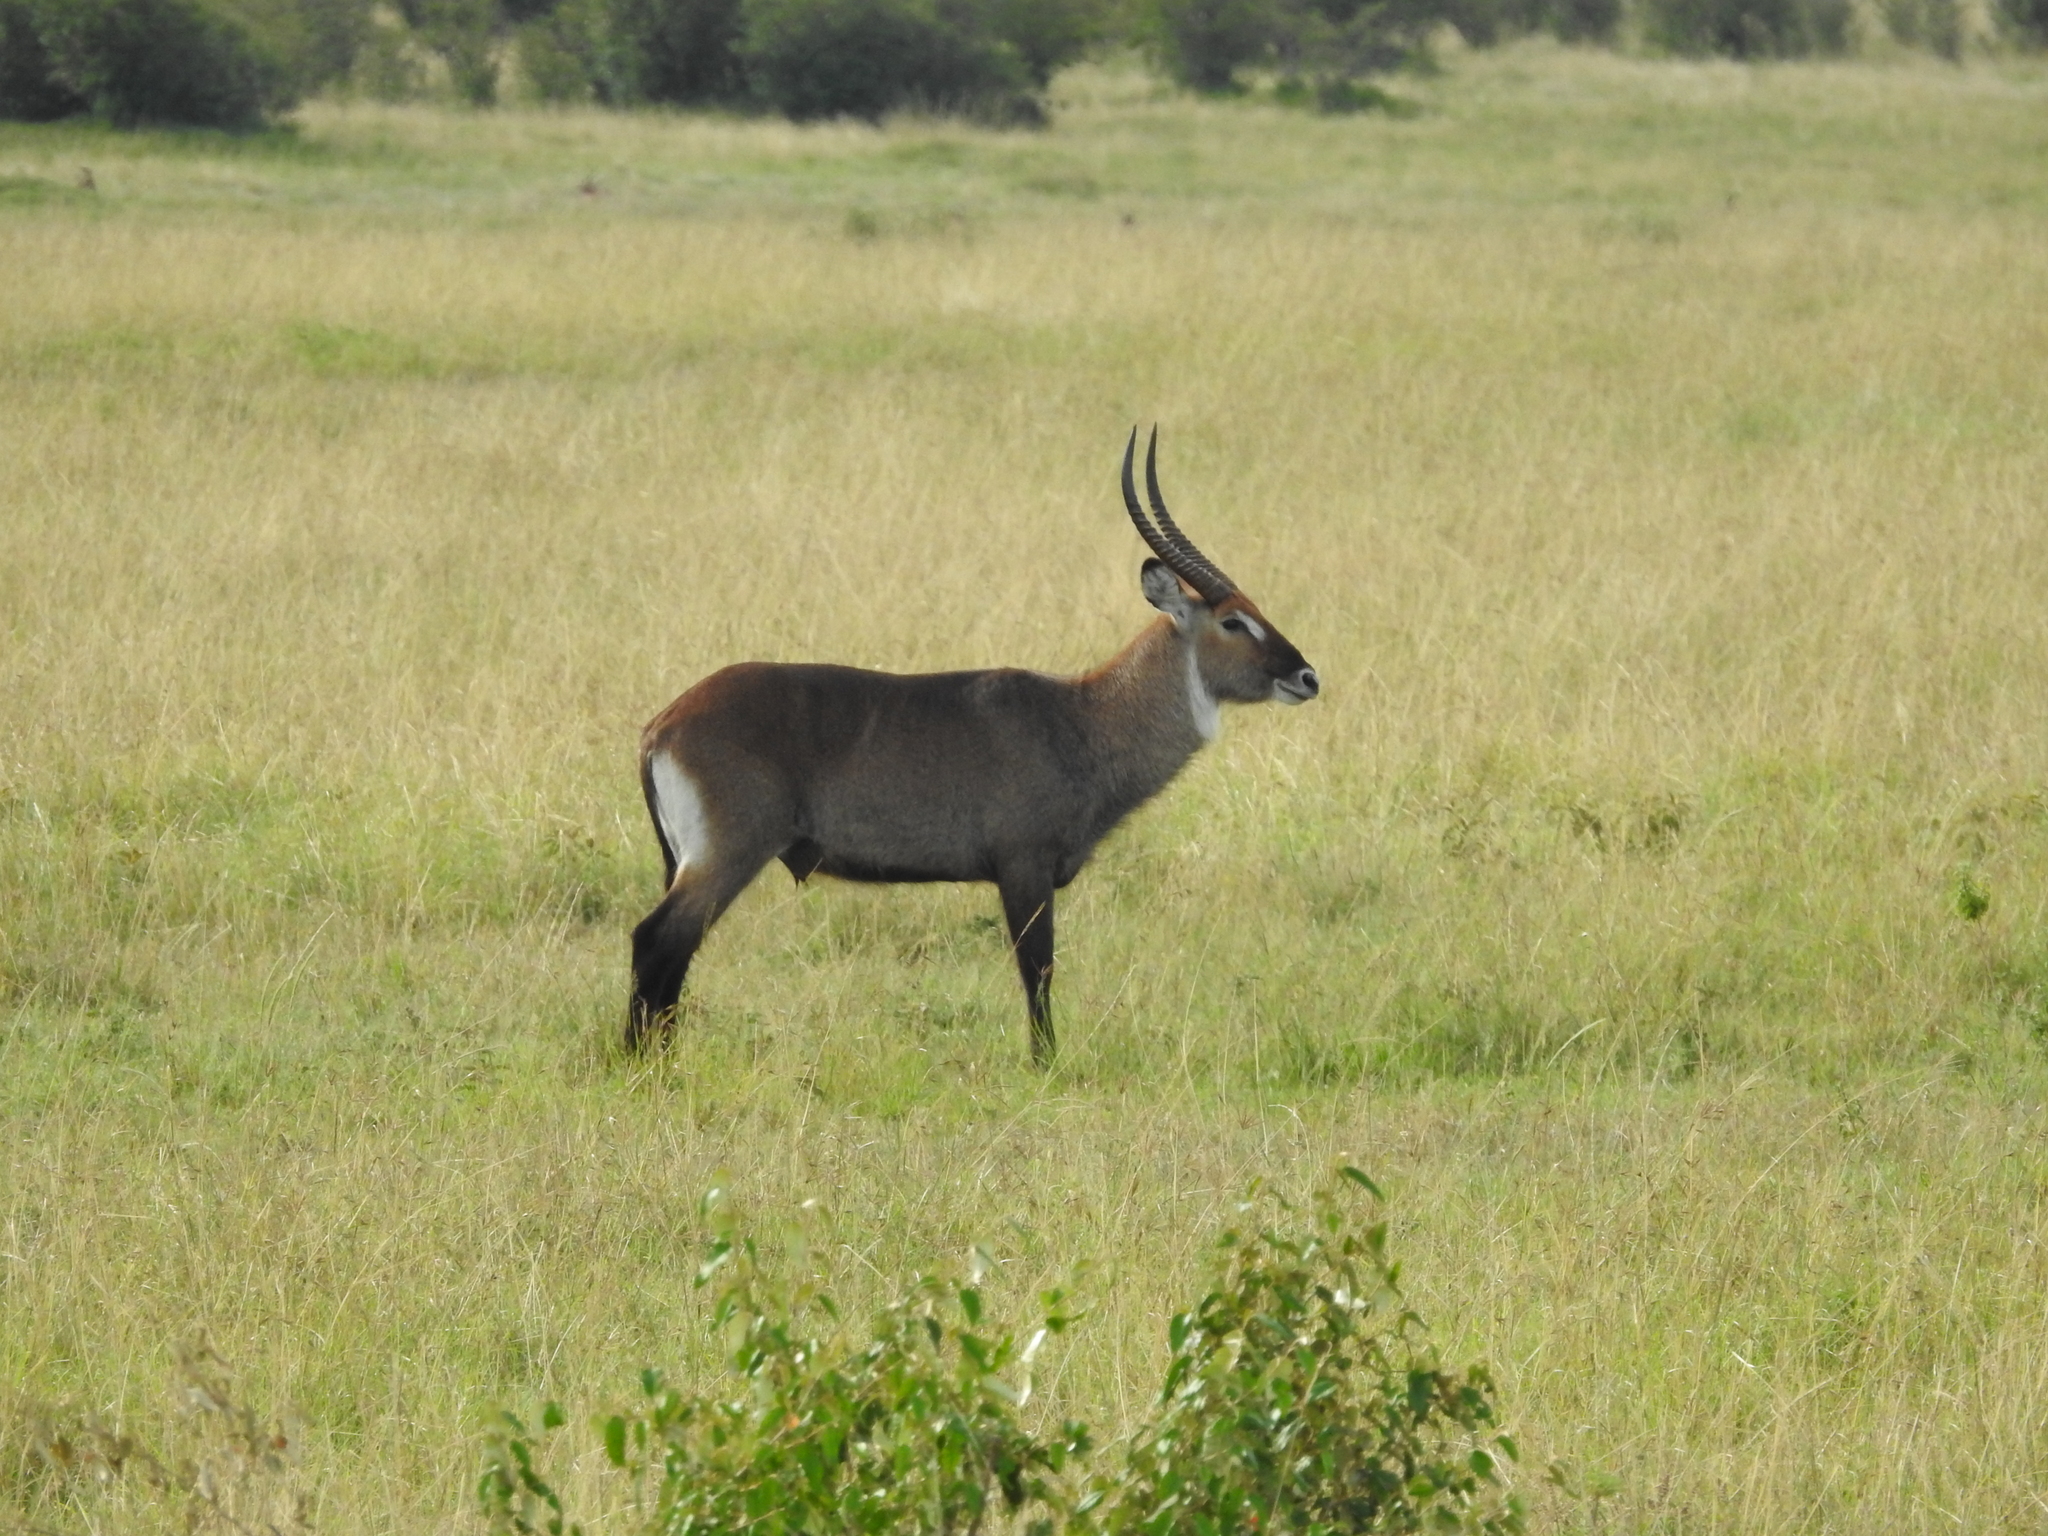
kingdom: Animalia
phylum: Chordata
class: Mammalia
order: Artiodactyla
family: Bovidae
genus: Kobus
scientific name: Kobus ellipsiprymnus
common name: Waterbuck
